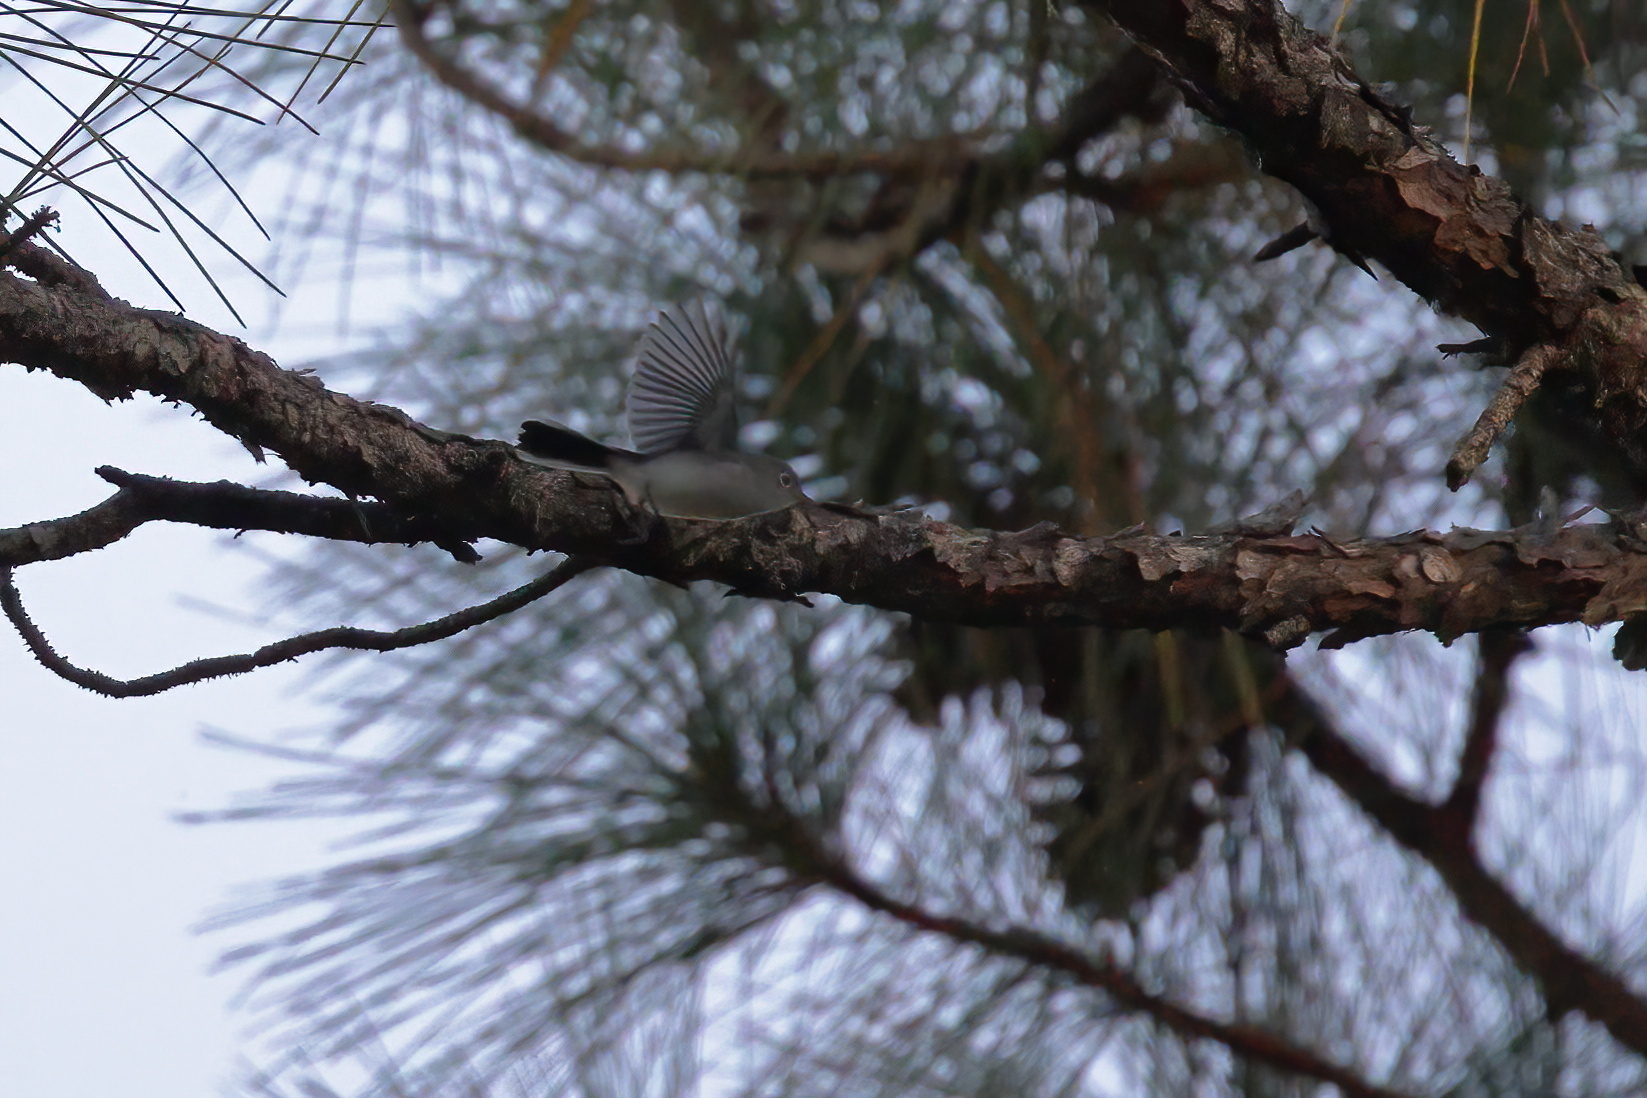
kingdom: Animalia
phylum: Chordata
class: Aves
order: Passeriformes
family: Polioptilidae
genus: Polioptila
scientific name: Polioptila caerulea
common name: Blue-gray gnatcatcher
